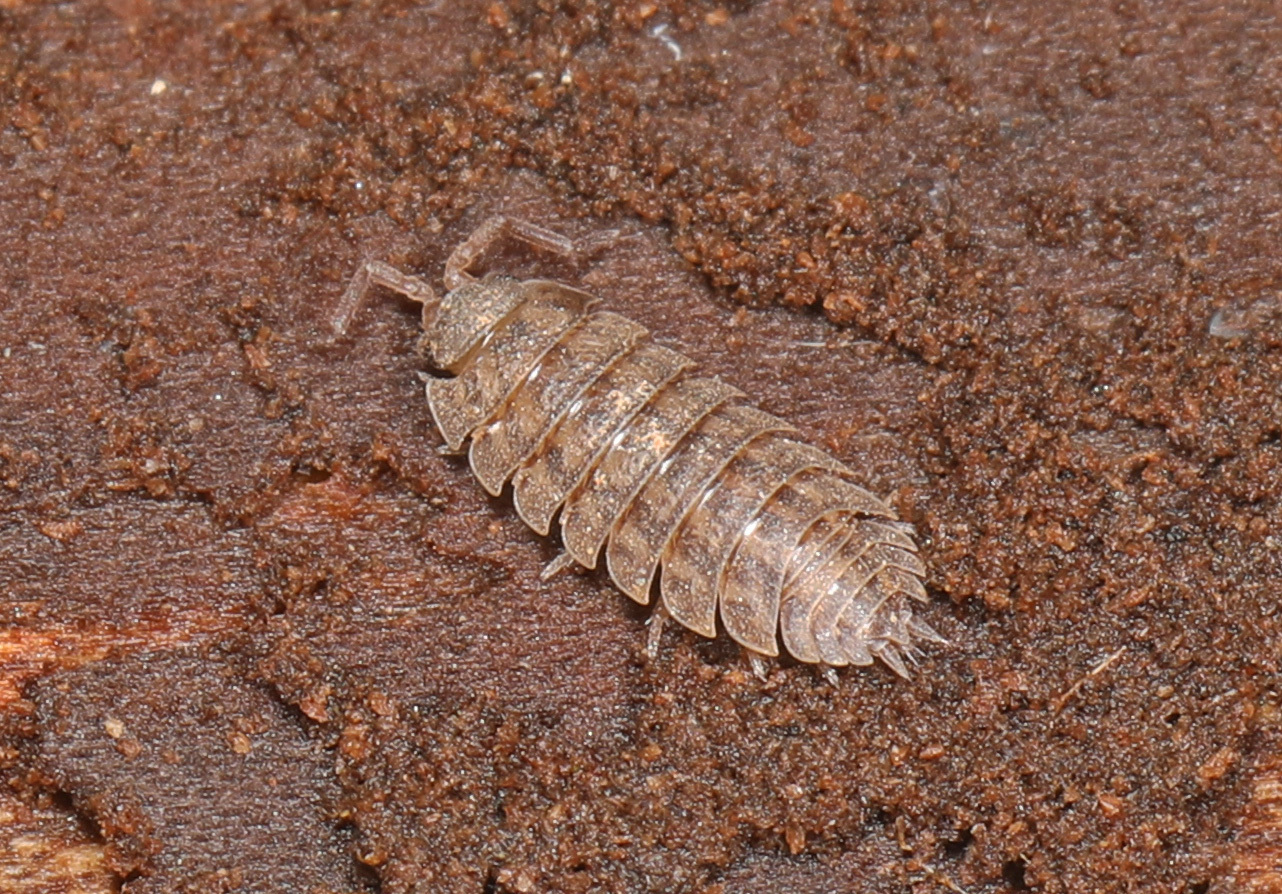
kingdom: Animalia
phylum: Arthropoda
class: Malacostraca
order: Isopoda
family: Trachelipodidae
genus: Trachelipus
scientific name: Trachelipus rathkii
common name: Isopod
